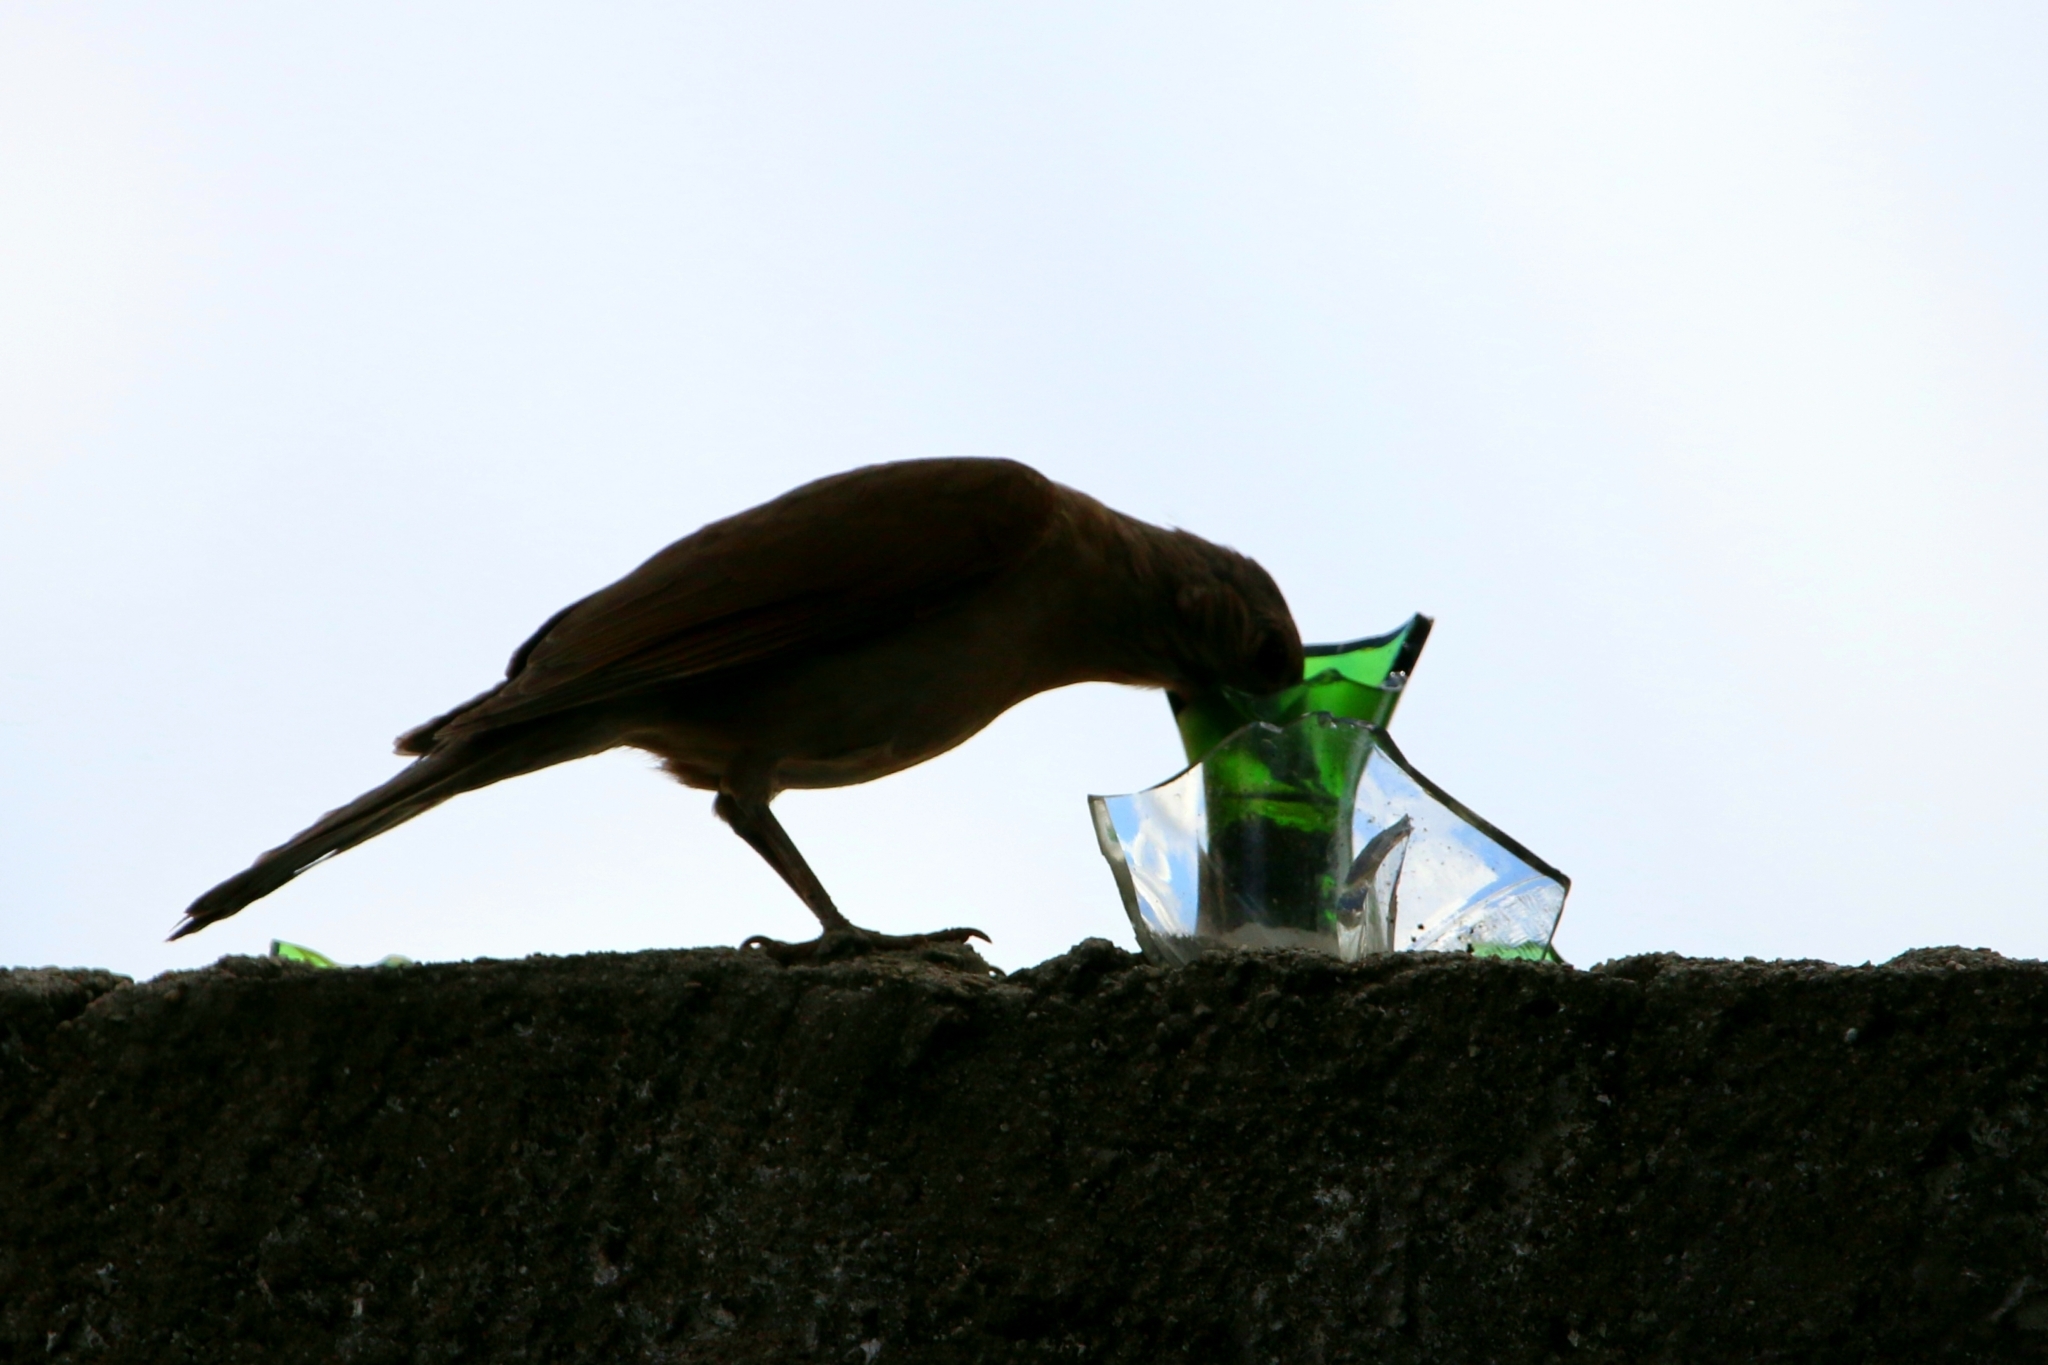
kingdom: Animalia
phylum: Chordata
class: Aves
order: Passeriformes
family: Turdidae
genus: Turdus
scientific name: Turdus leucomelas
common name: Pale-breasted thrush
